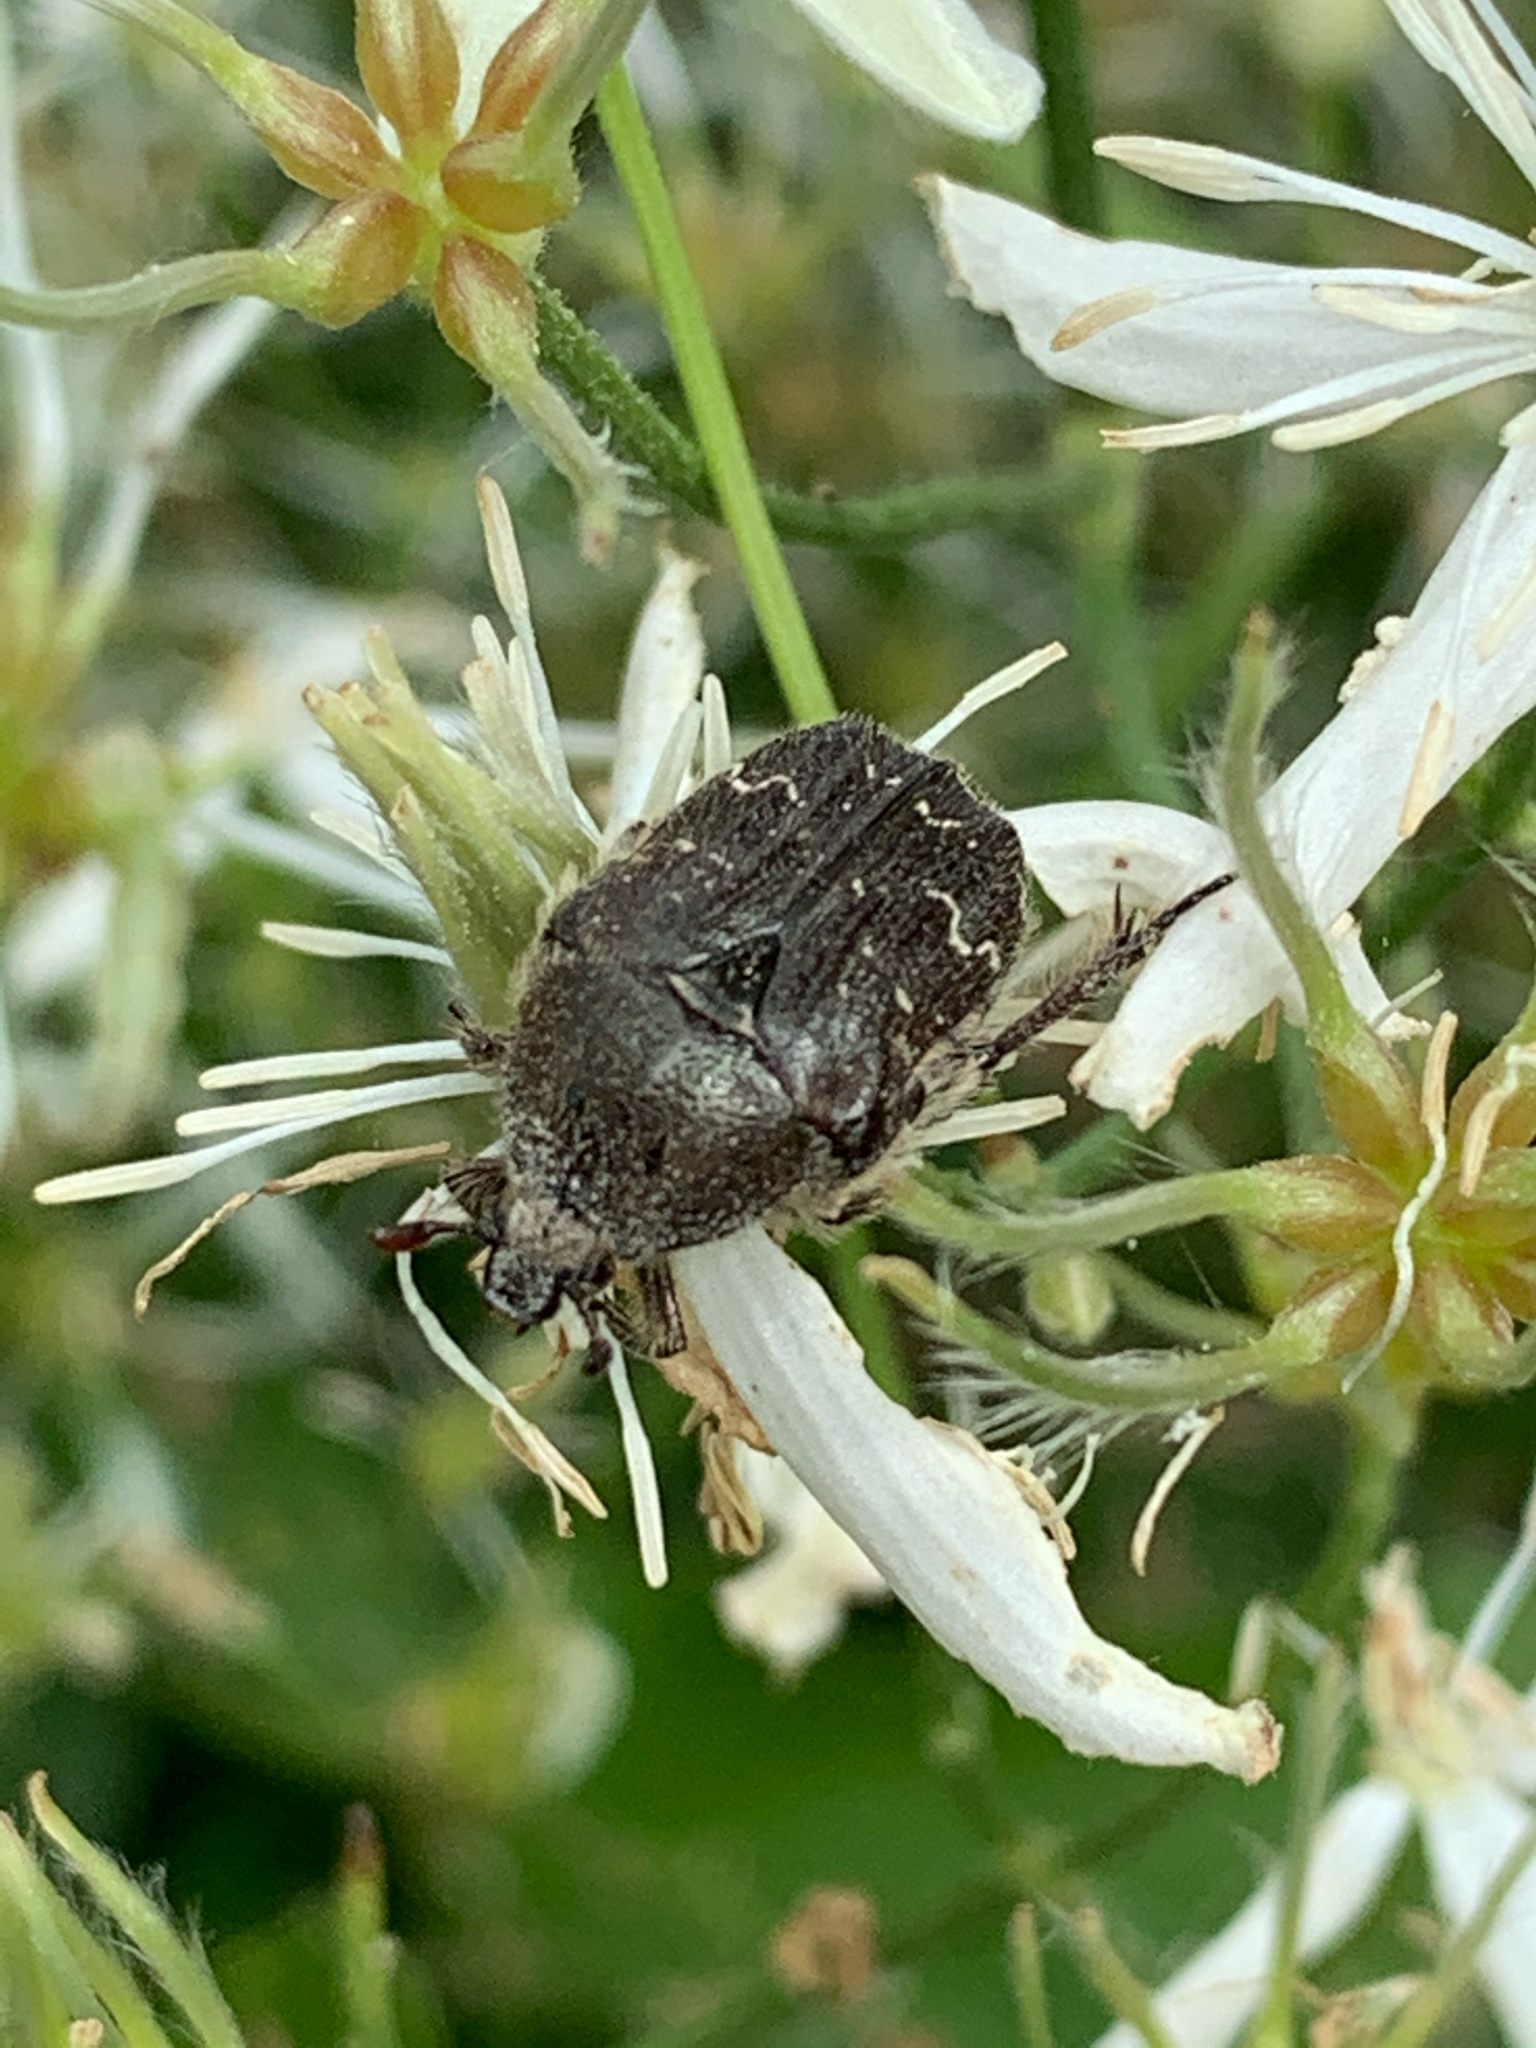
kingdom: Animalia
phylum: Arthropoda
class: Insecta
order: Coleoptera
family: Scarabaeidae
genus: Euphoria
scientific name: Euphoria sepulcralis
